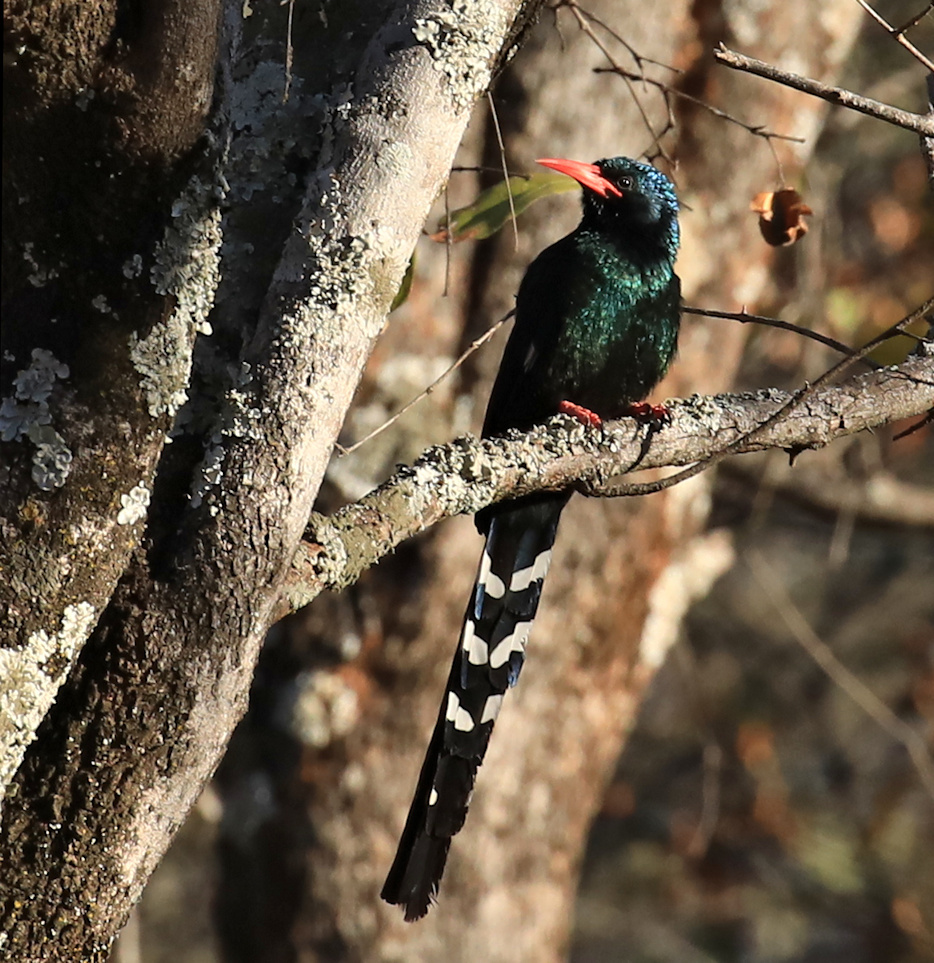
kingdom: Animalia
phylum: Chordata
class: Aves
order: Bucerotiformes
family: Phoeniculidae
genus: Phoeniculus
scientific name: Phoeniculus purpureus
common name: Green woodhoopoe
